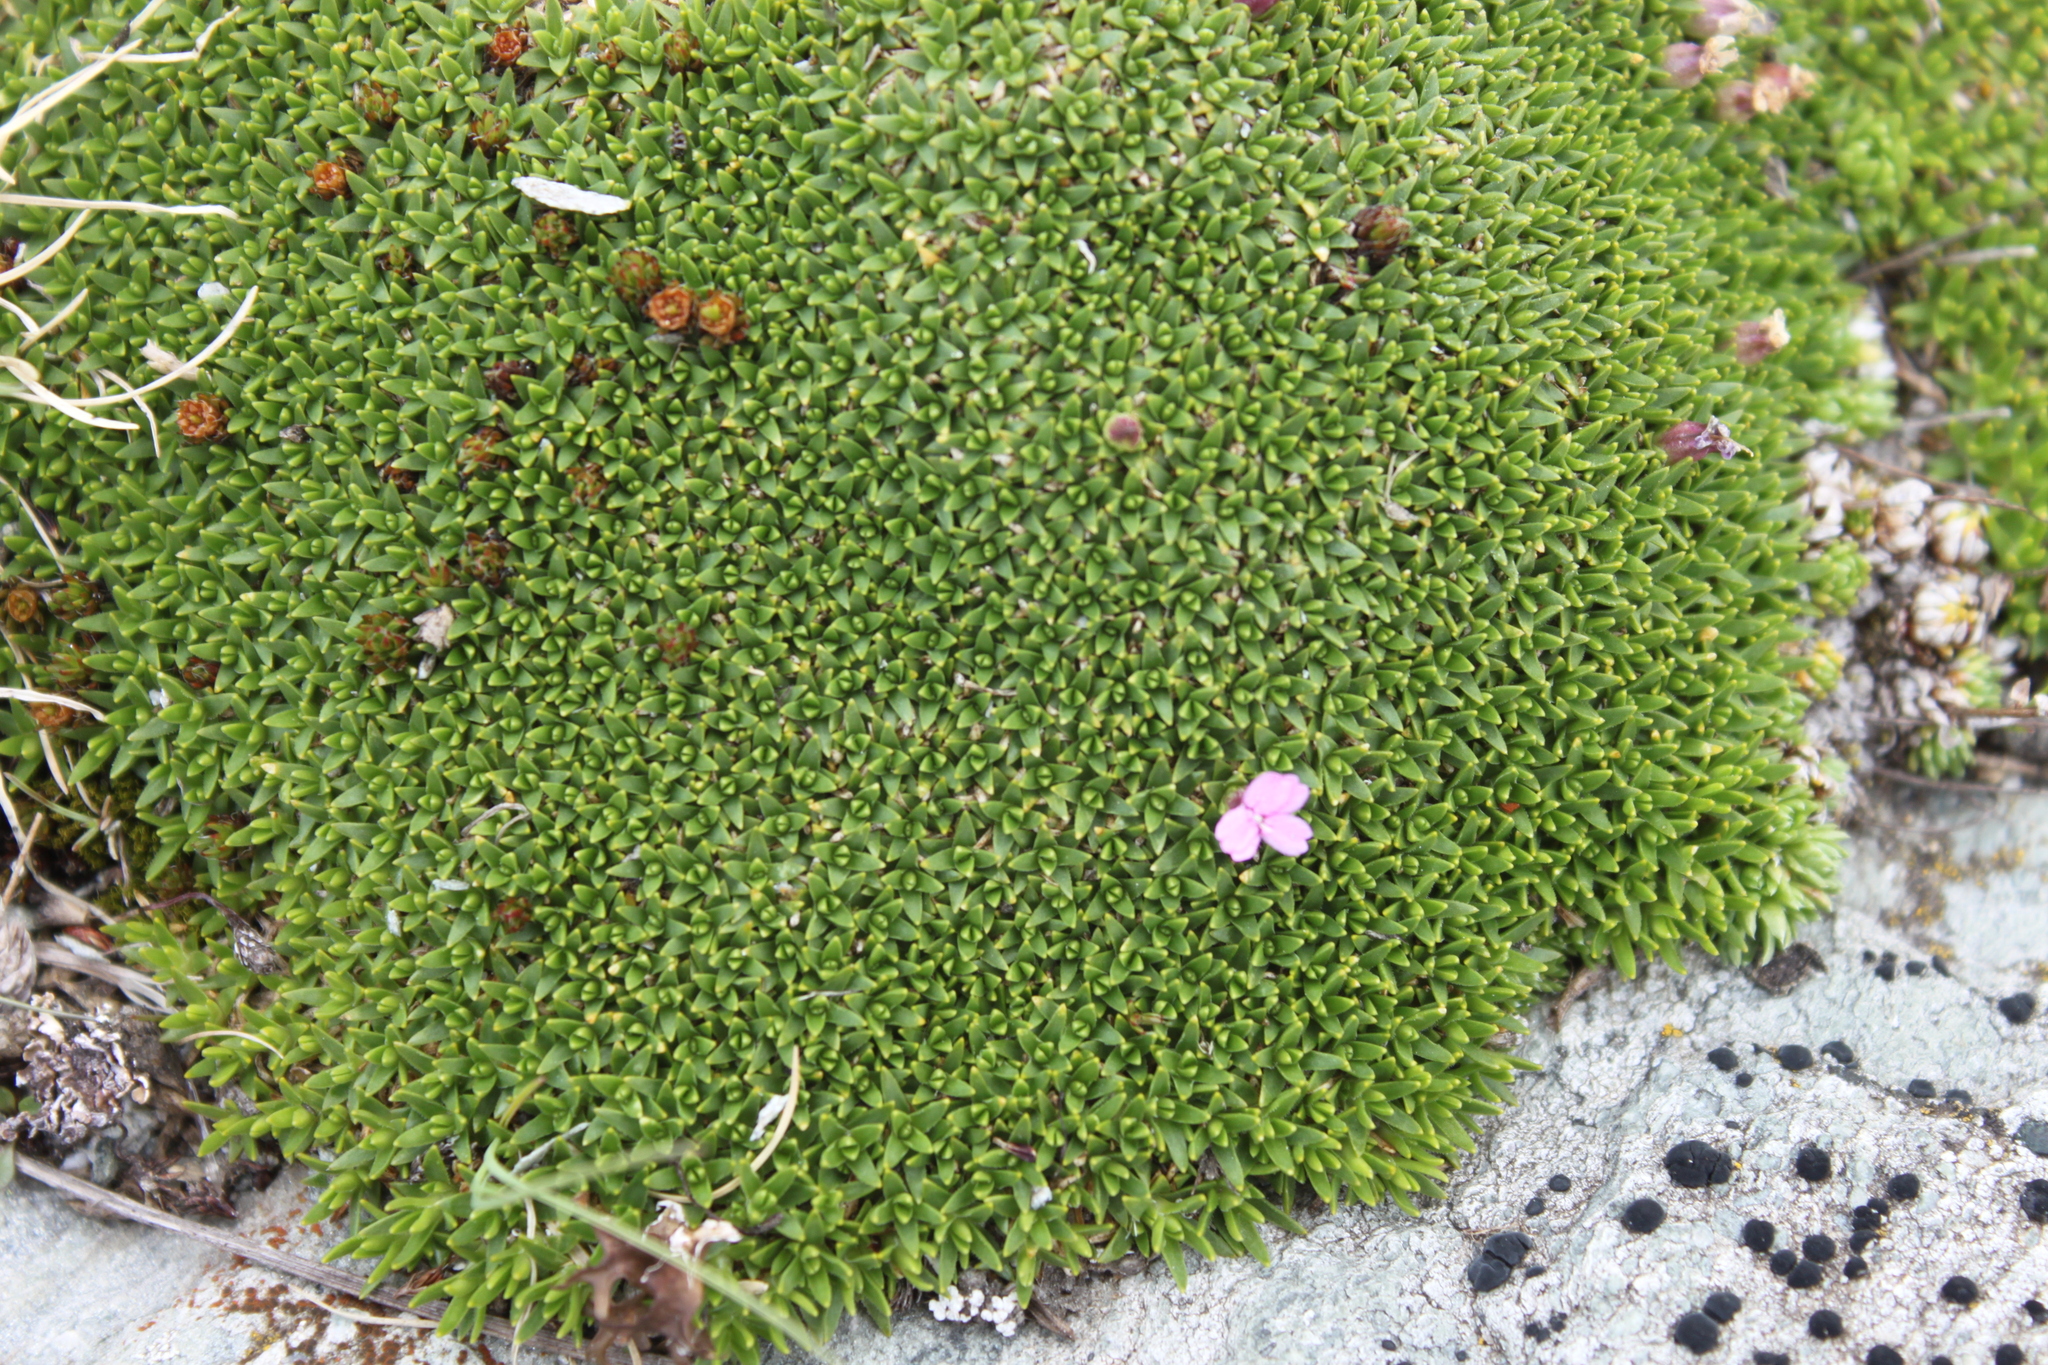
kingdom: Plantae
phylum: Tracheophyta
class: Magnoliopsida
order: Caryophyllales
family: Caryophyllaceae
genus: Silene
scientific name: Silene acaulis
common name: Moss campion
